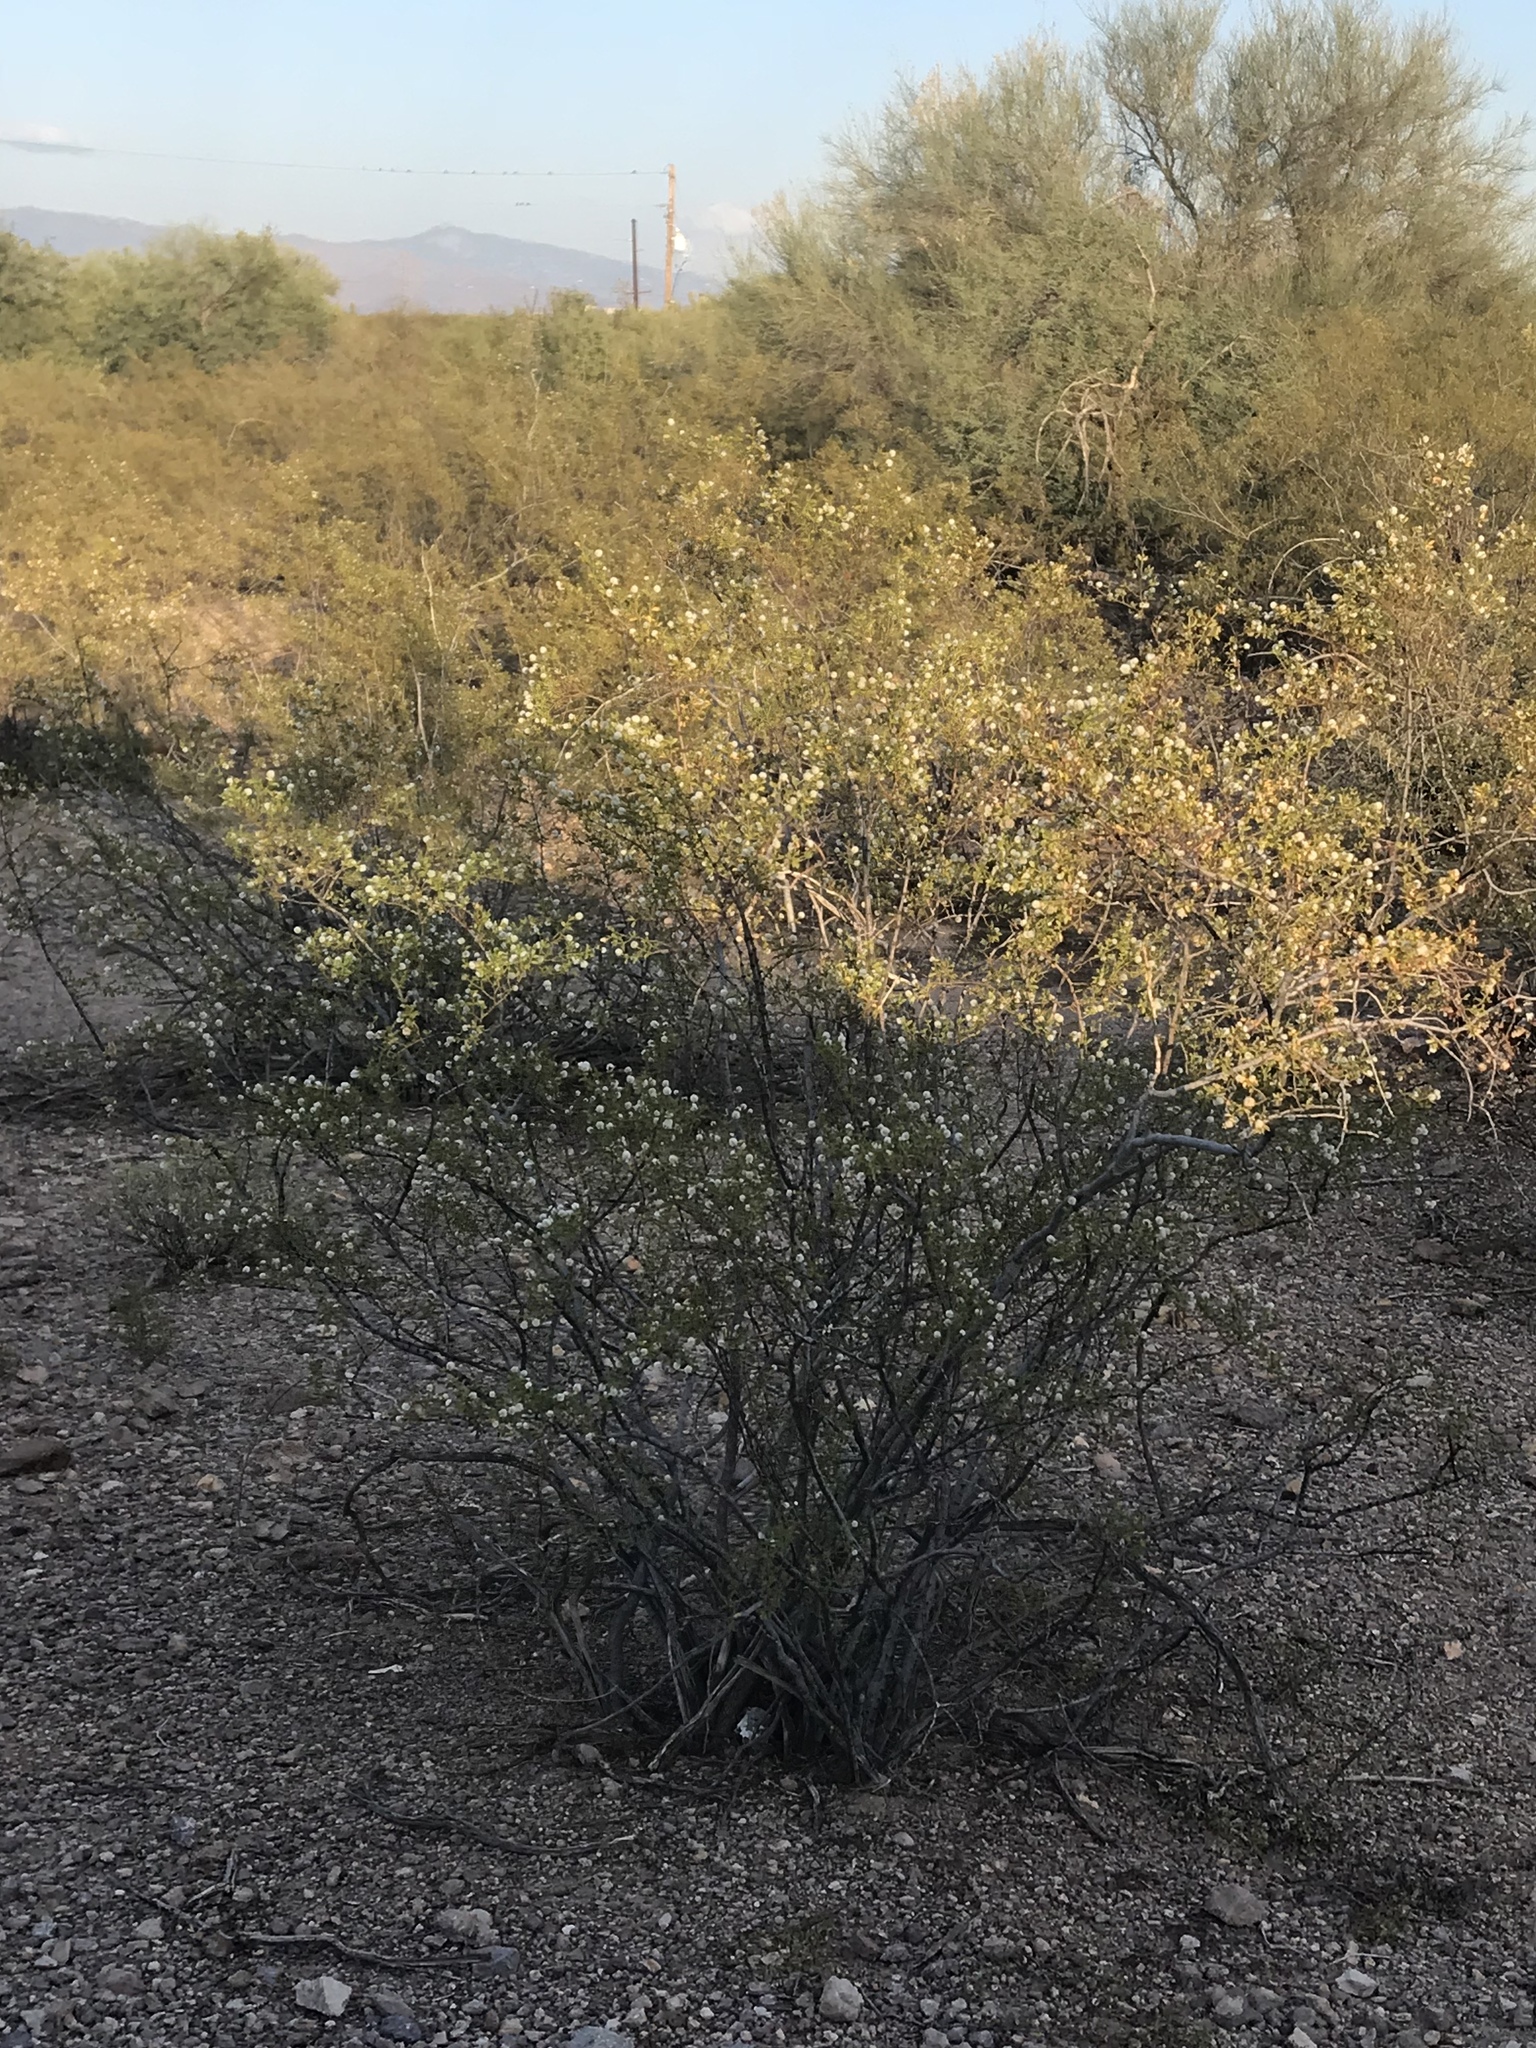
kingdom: Plantae
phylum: Tracheophyta
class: Magnoliopsida
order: Zygophyllales
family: Zygophyllaceae
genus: Larrea
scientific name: Larrea tridentata
